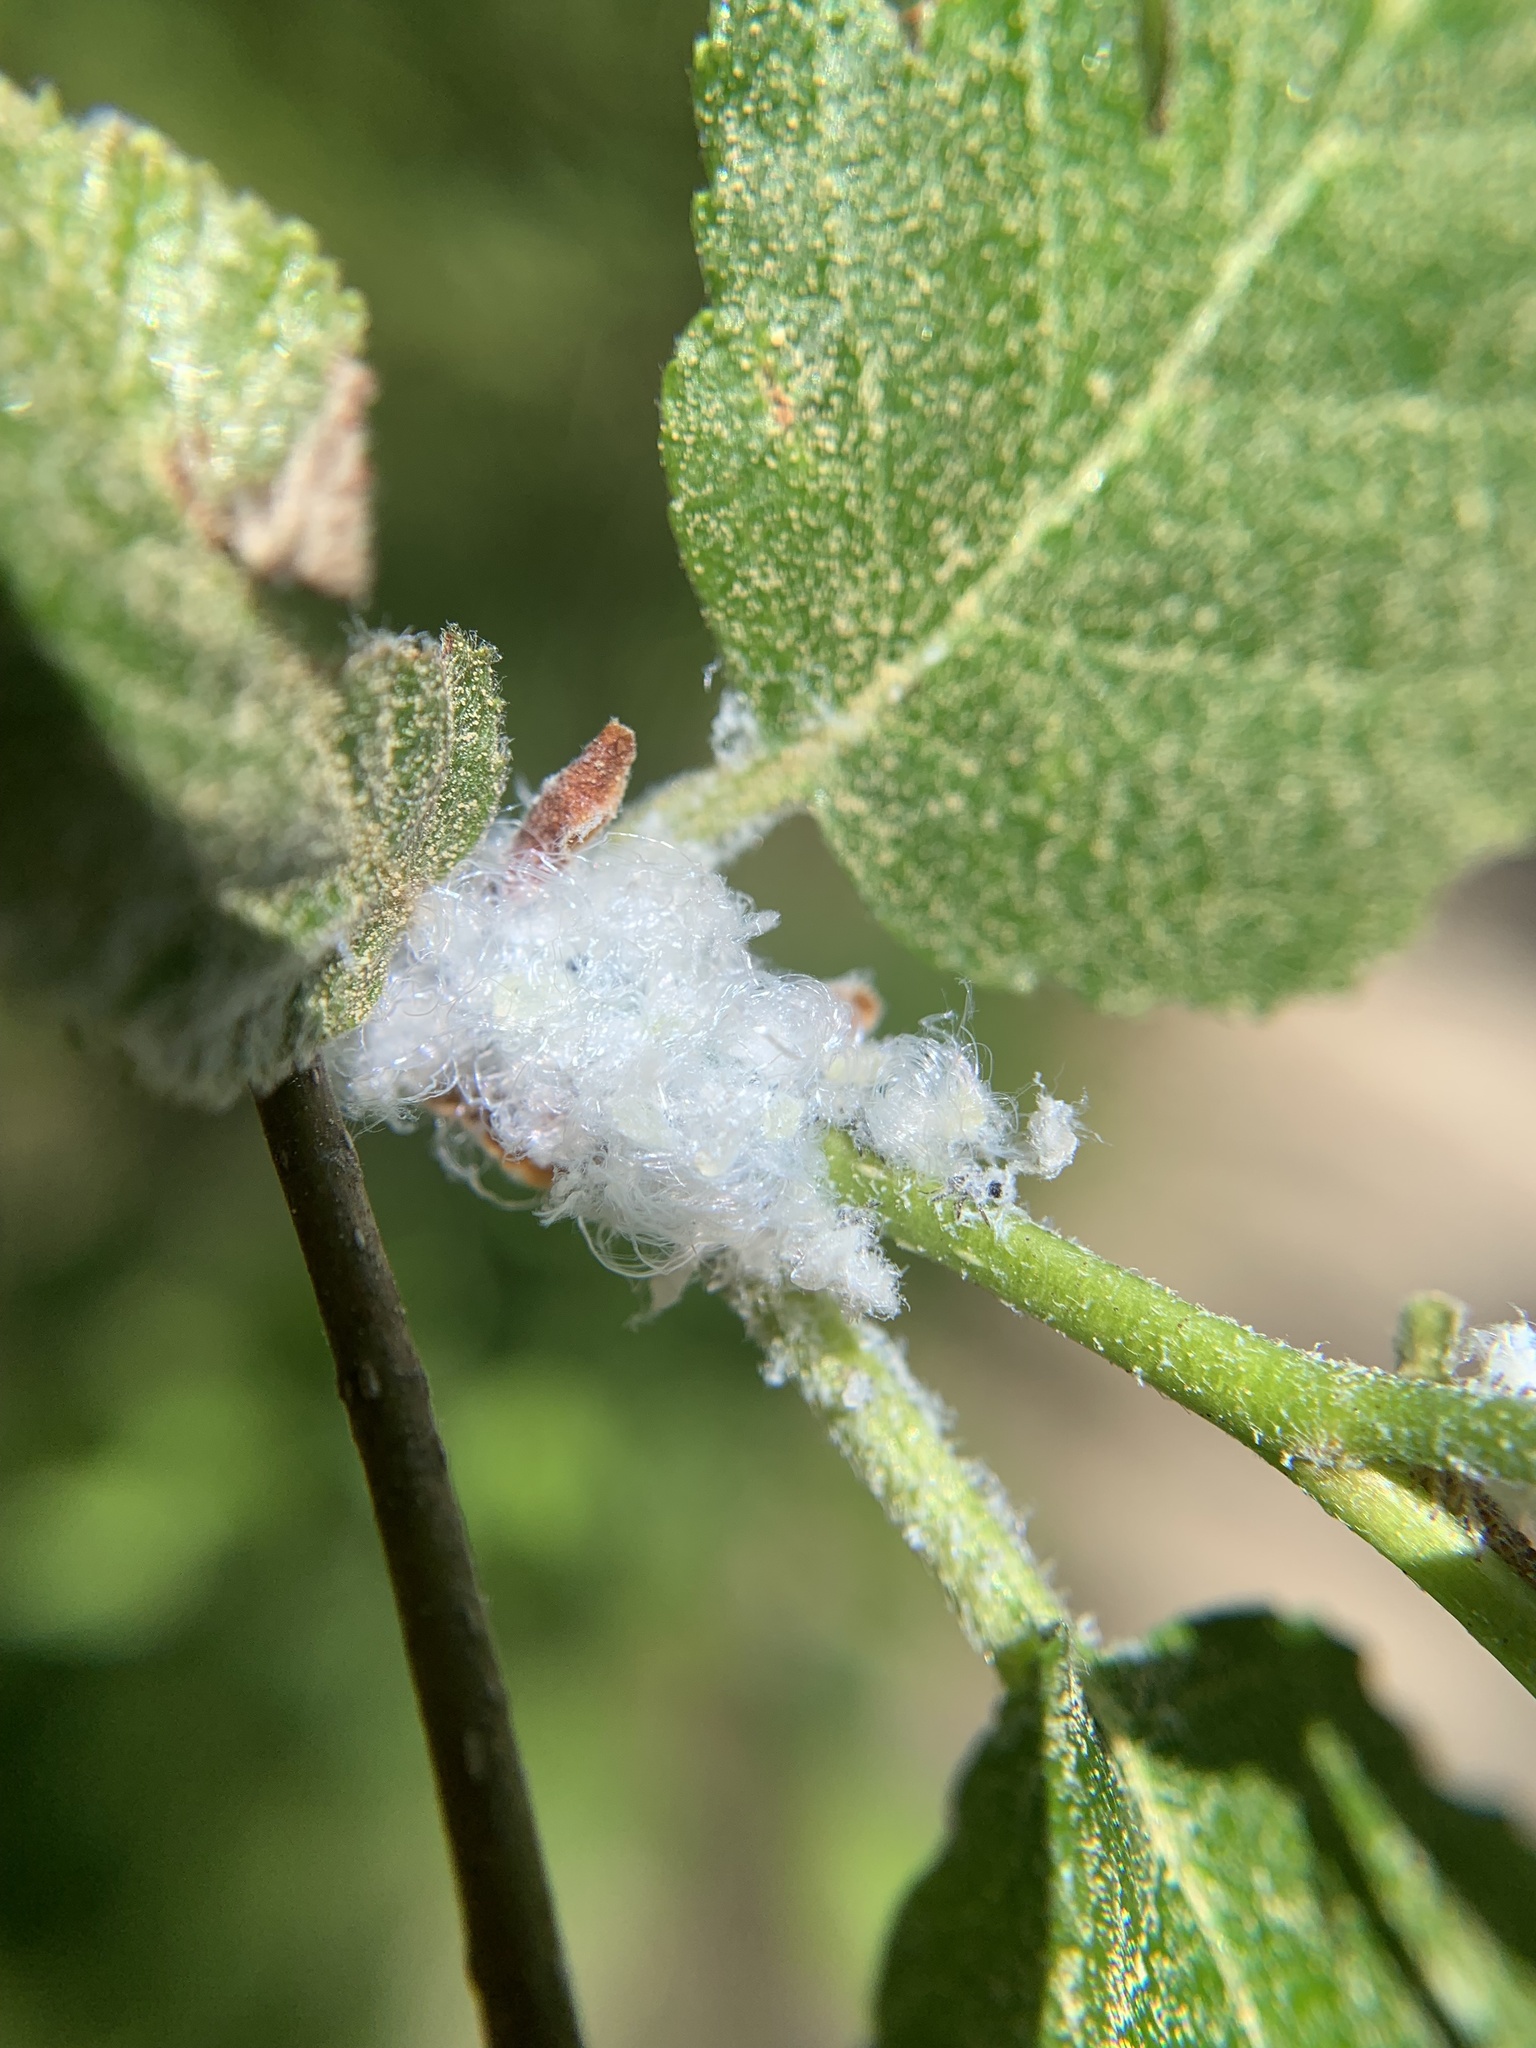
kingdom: Animalia
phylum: Arthropoda
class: Insecta
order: Hemiptera
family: Psyllidae
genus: Psylla
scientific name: Psylla alni
